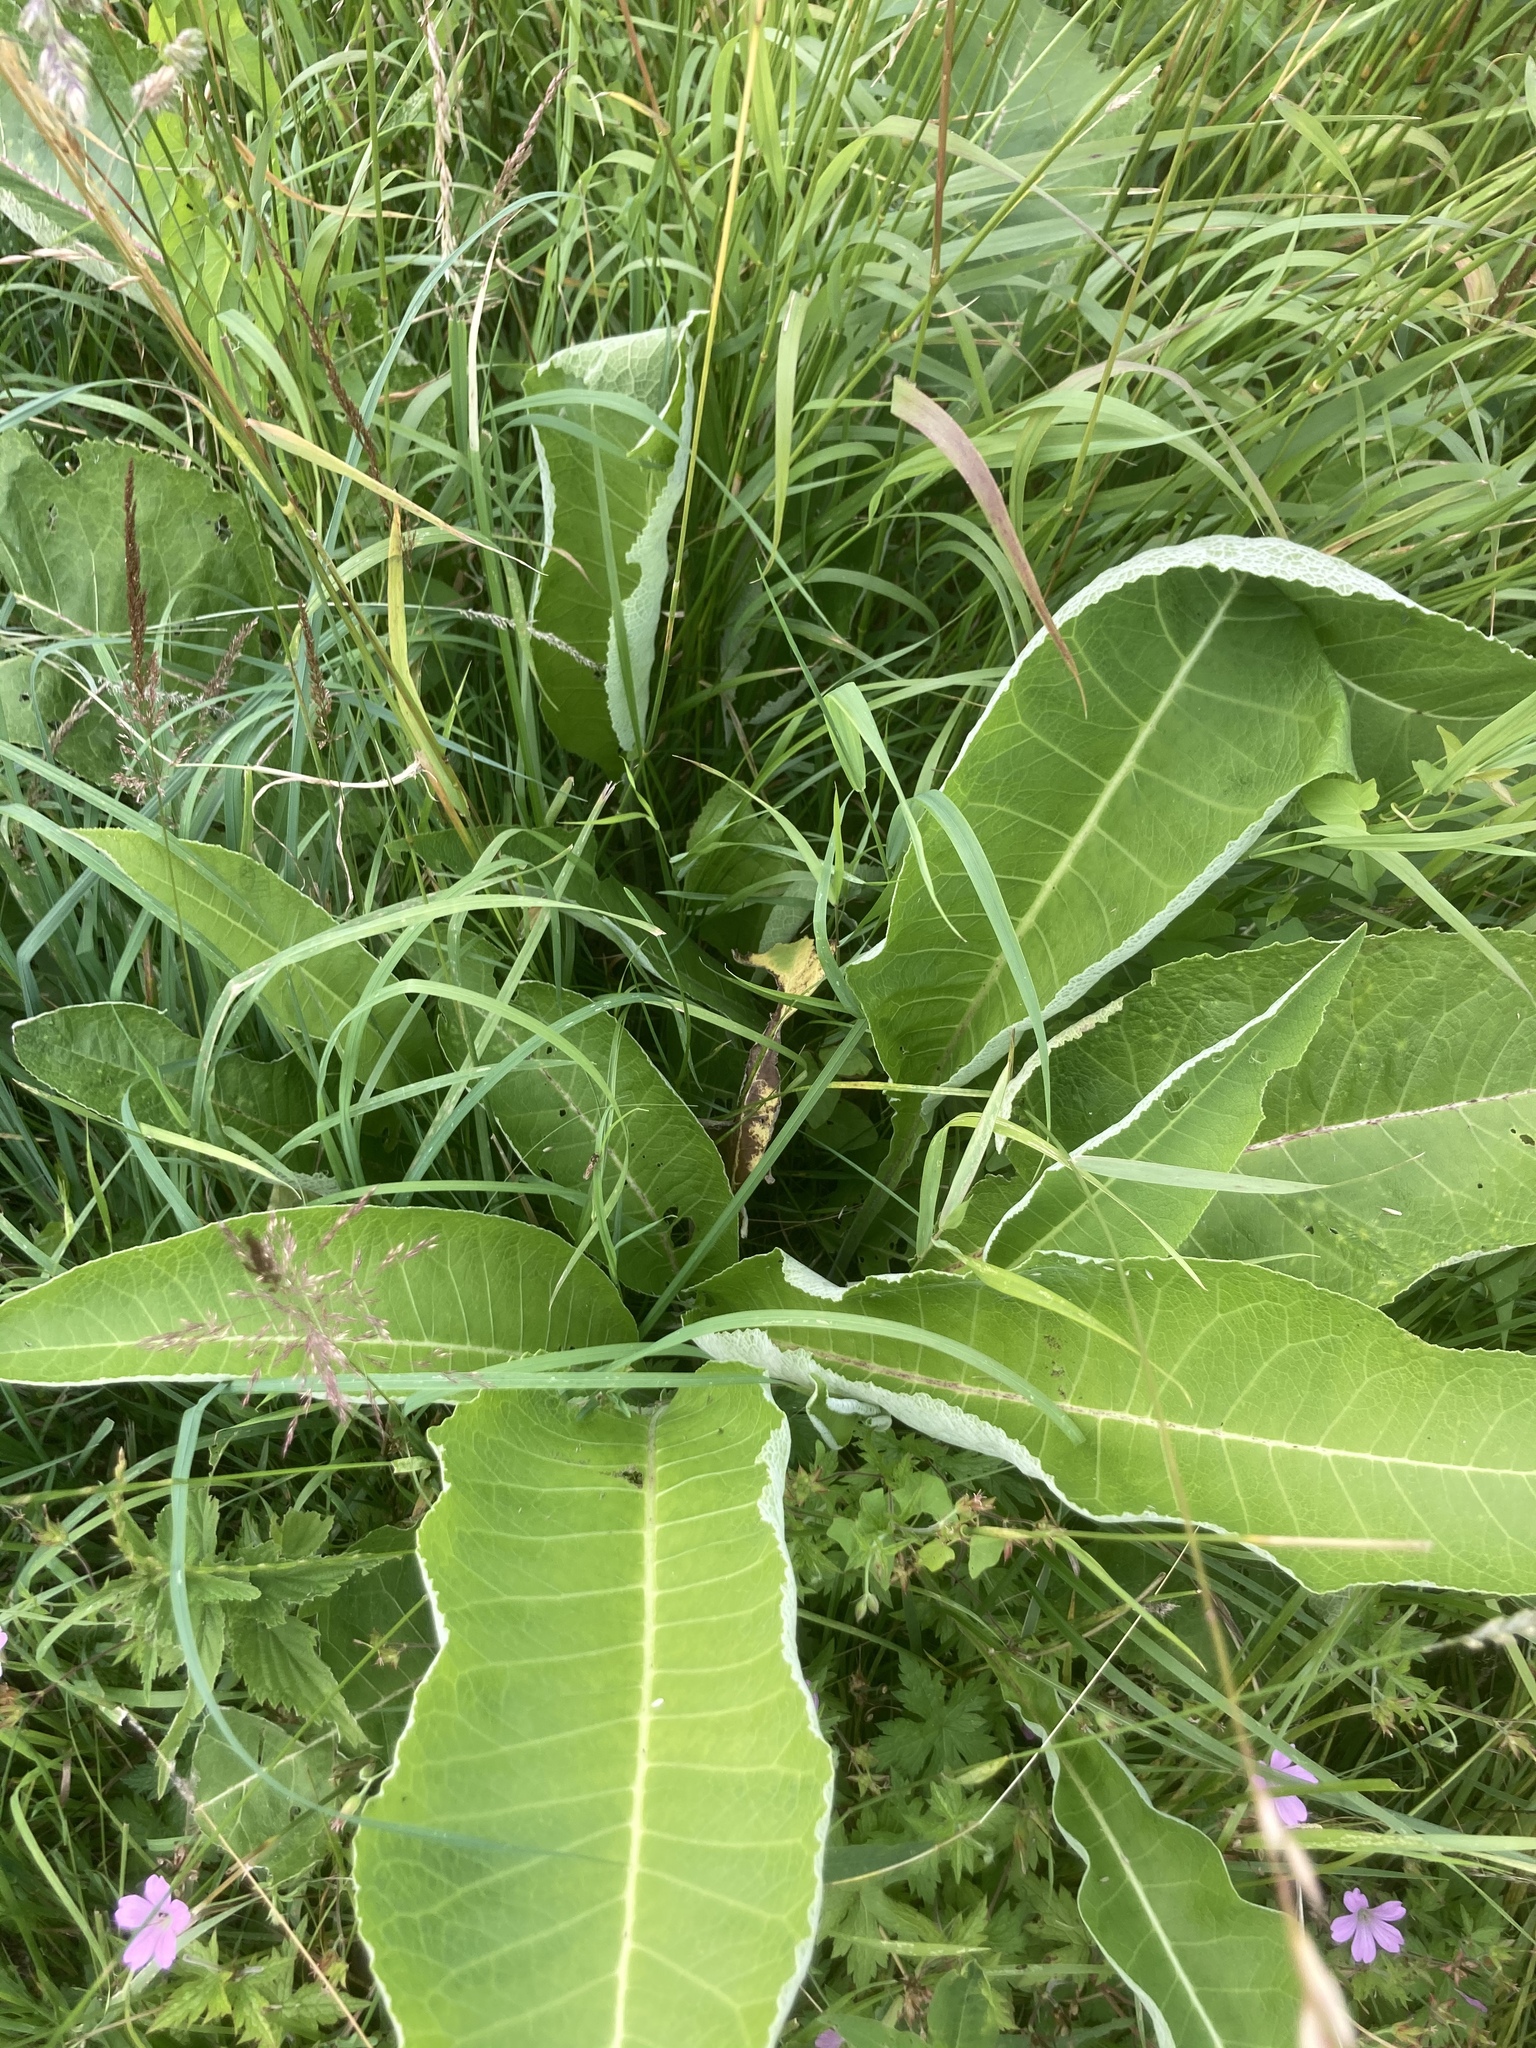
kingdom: Plantae
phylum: Tracheophyta
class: Magnoliopsida
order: Asterales
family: Asteraceae
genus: Inula
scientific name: Inula helenium
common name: Elecampane
